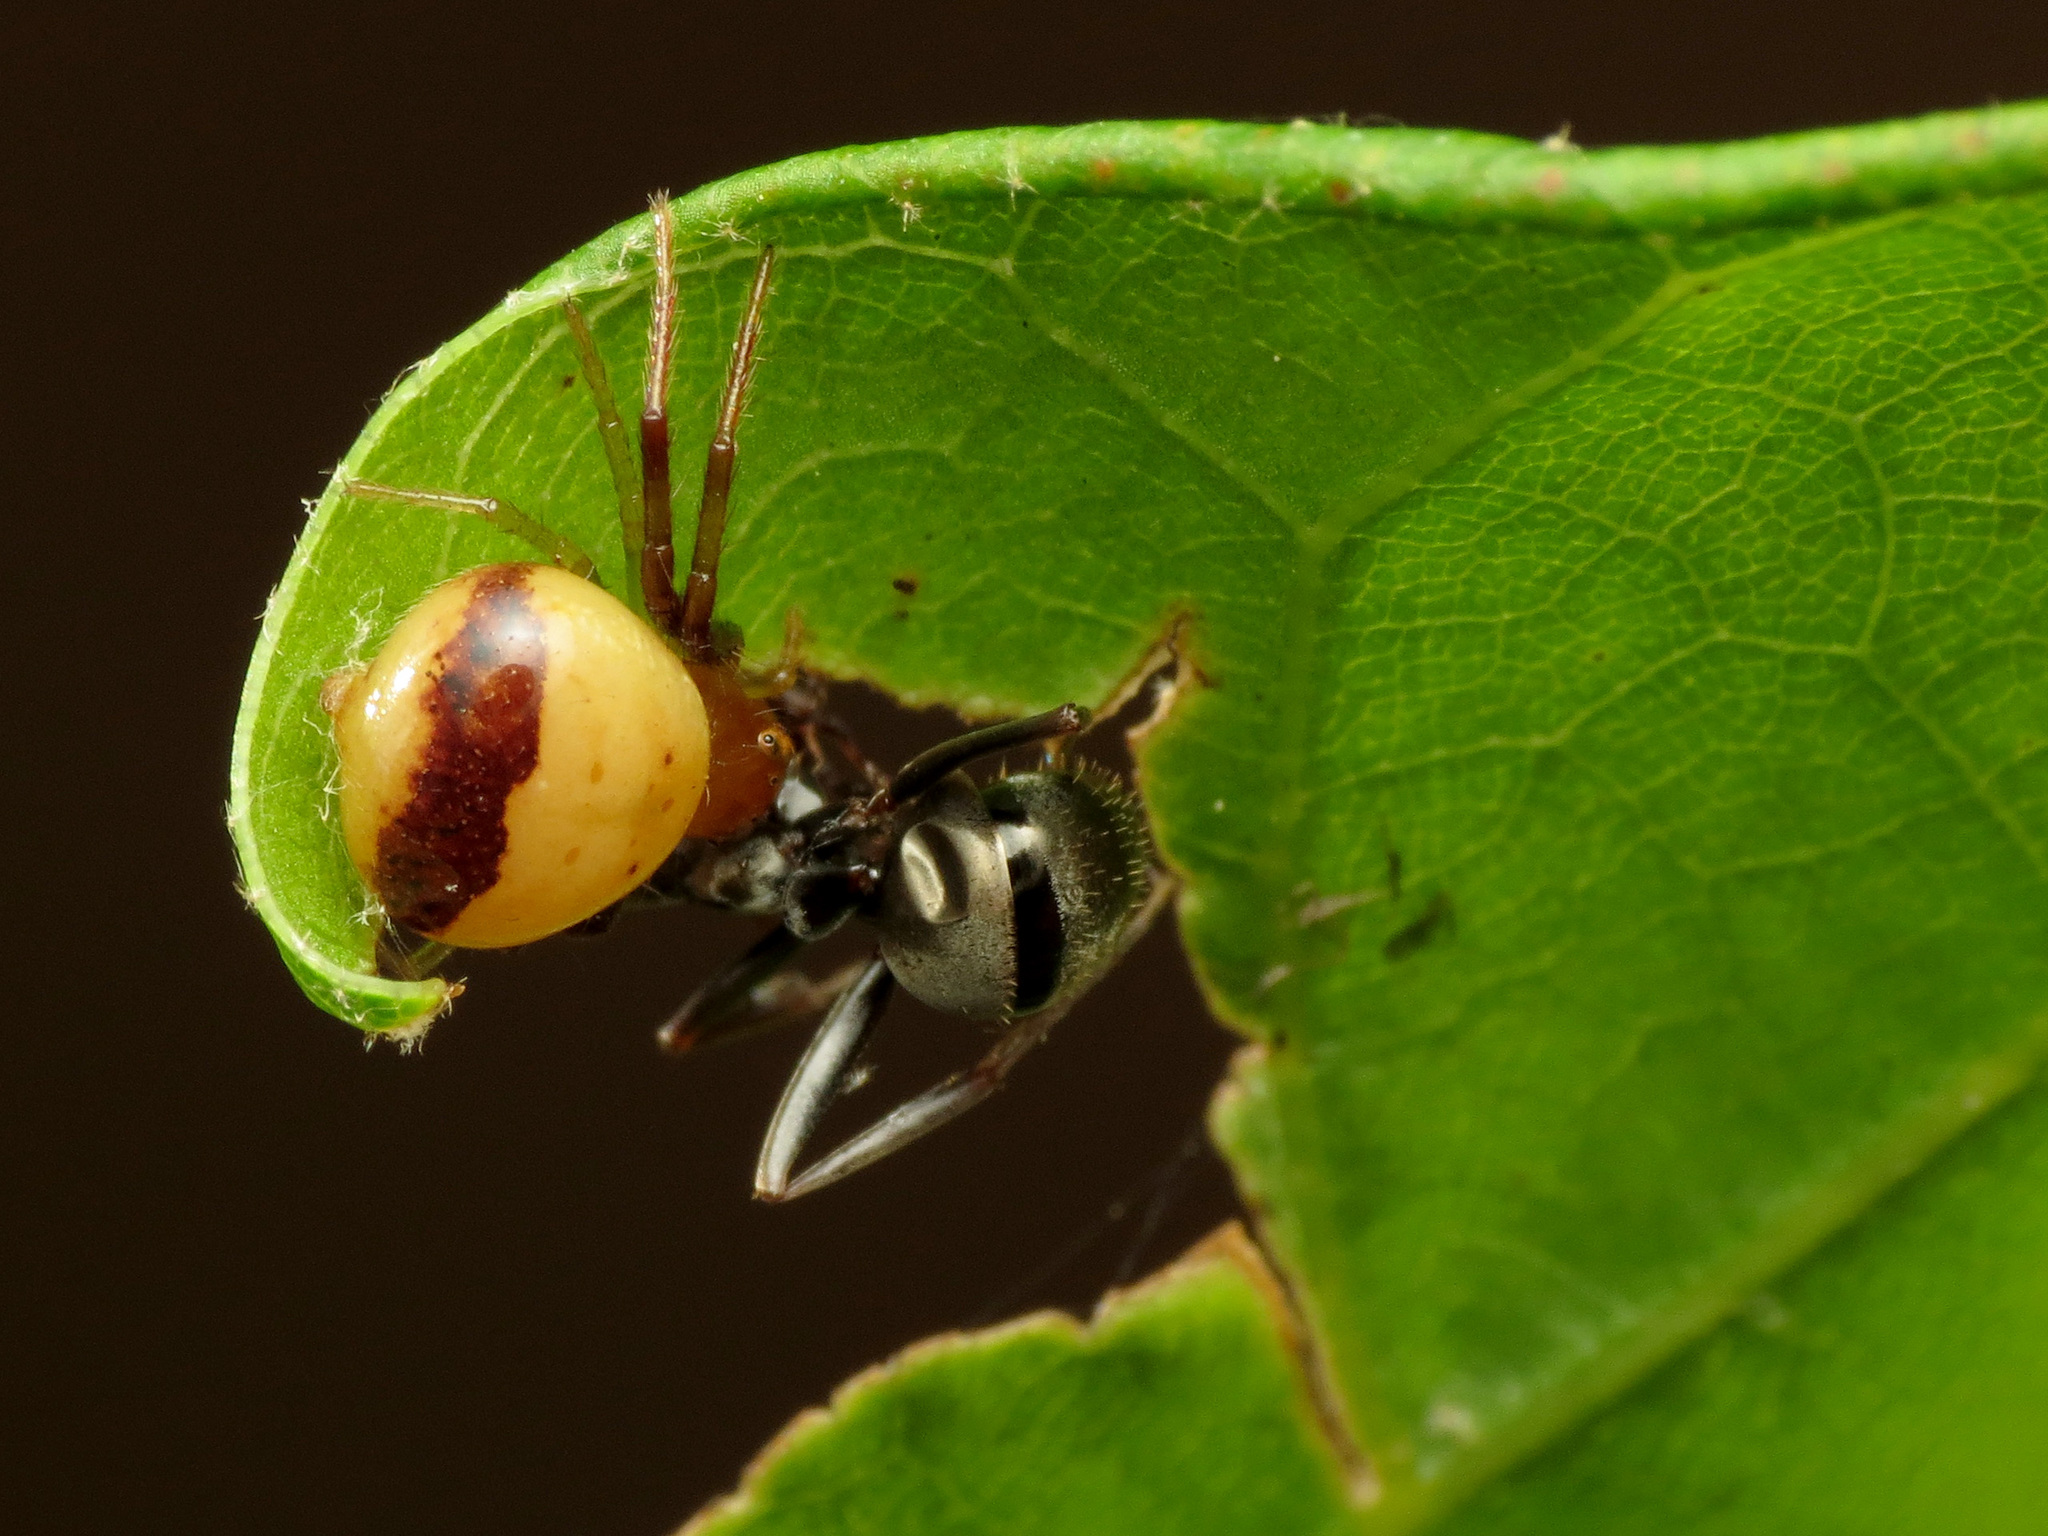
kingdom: Animalia
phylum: Arthropoda
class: Arachnida
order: Araneae
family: Thomisidae
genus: Synema
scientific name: Synema parvulum
